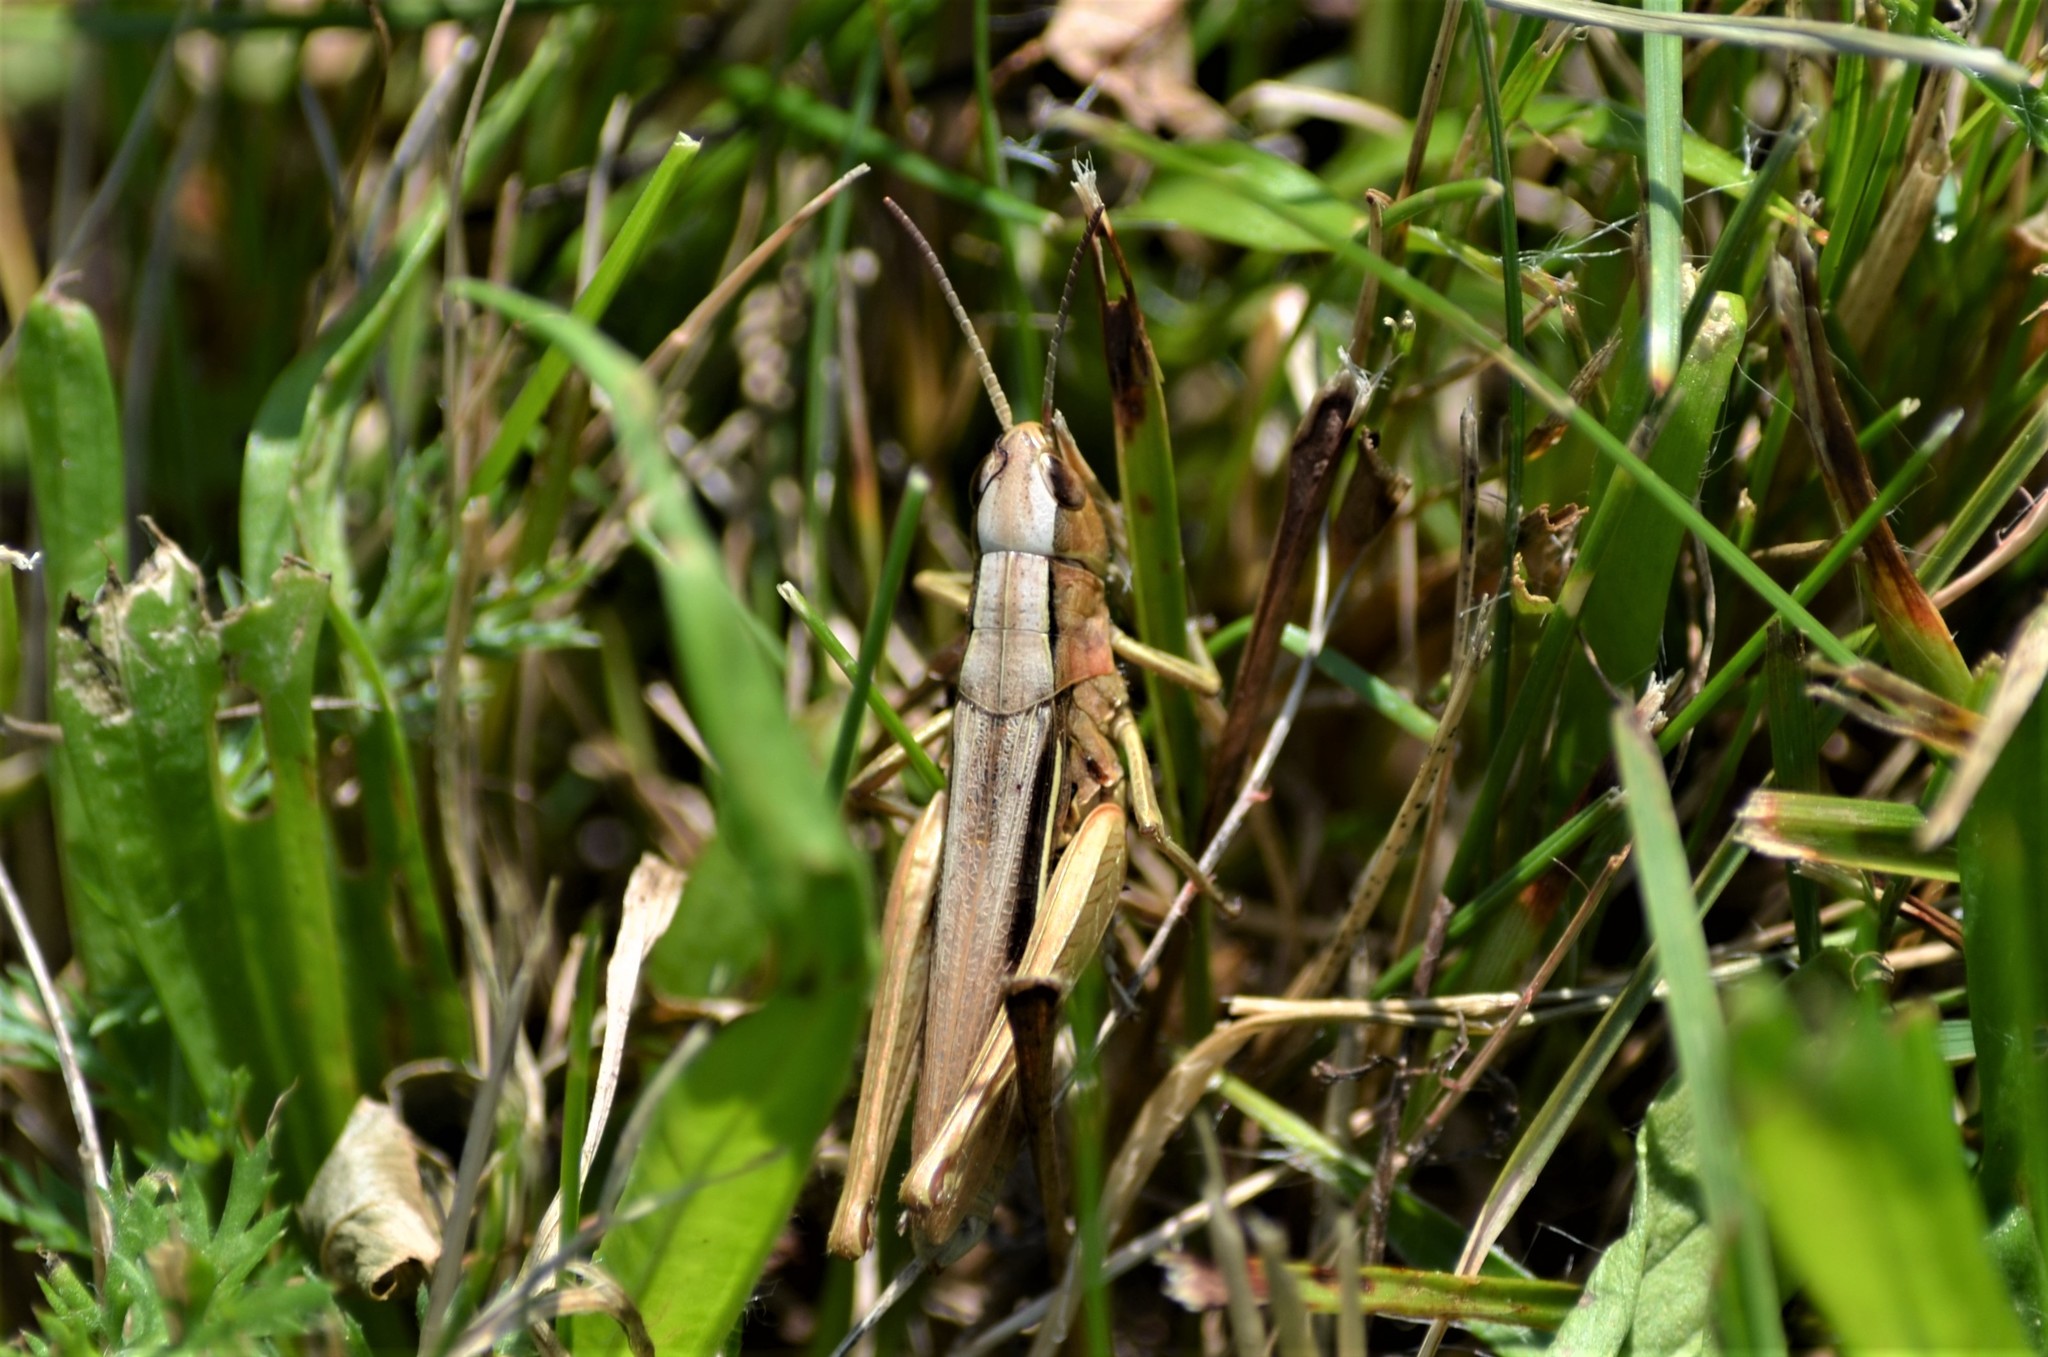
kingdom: Animalia
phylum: Arthropoda
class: Insecta
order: Orthoptera
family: Acrididae
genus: Chorthippus
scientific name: Chorthippus albomarginatus
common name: Lesser marsh grasshopper
